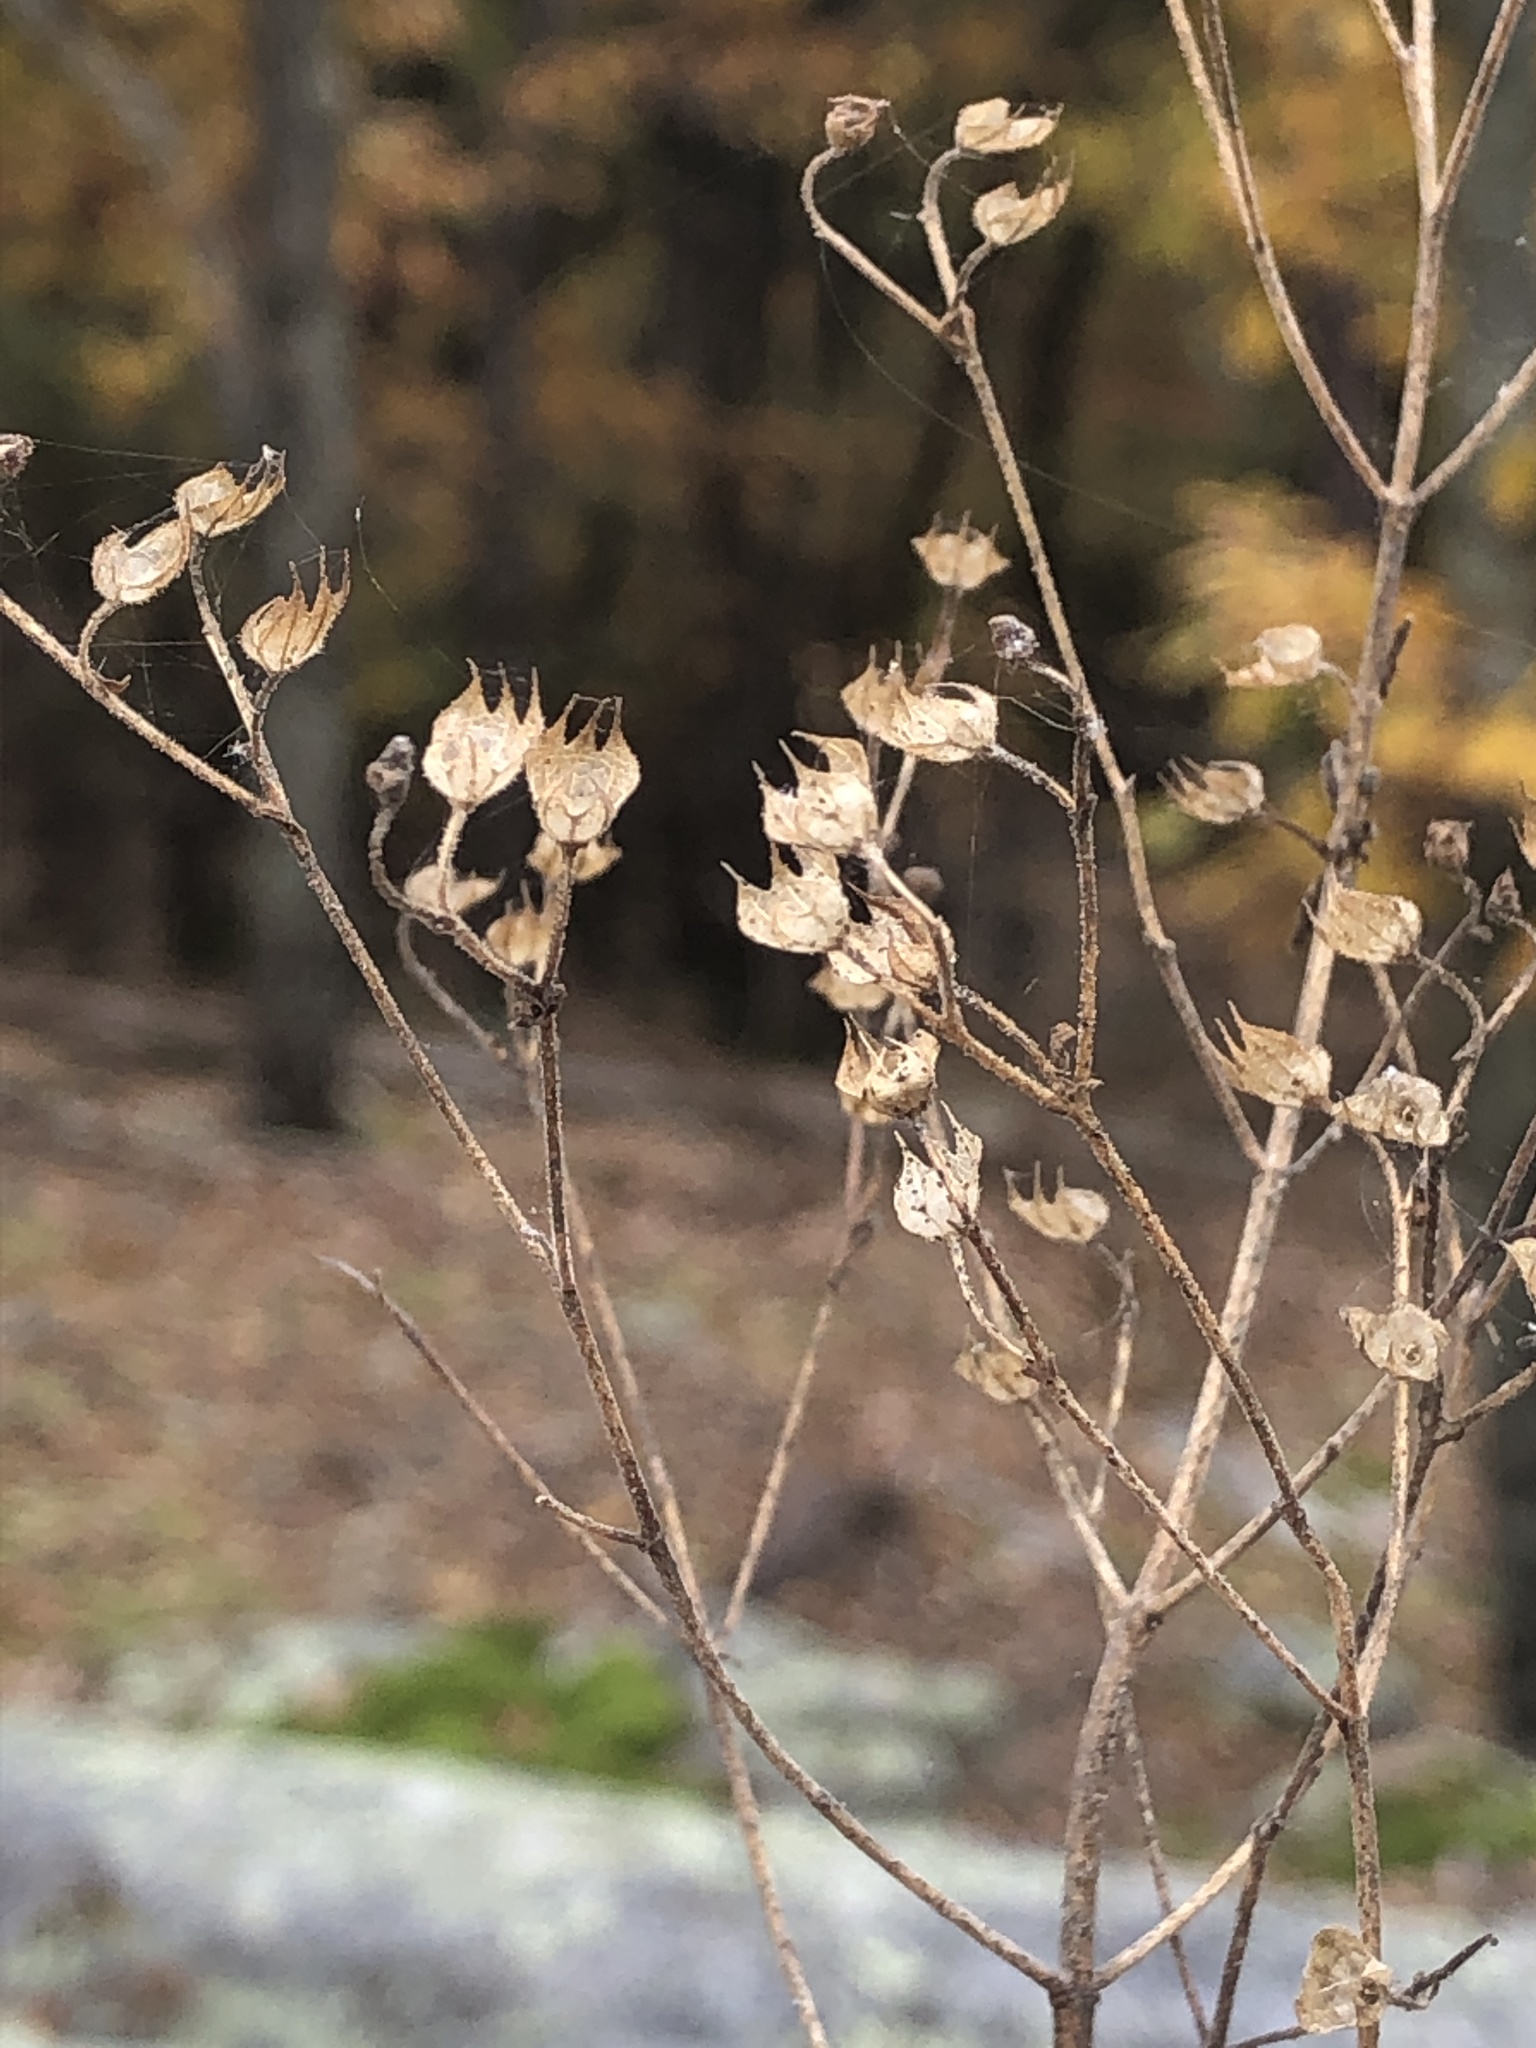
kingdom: Plantae
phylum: Tracheophyta
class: Magnoliopsida
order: Lamiales
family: Lamiaceae
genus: Trichostema
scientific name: Trichostema setaceum
